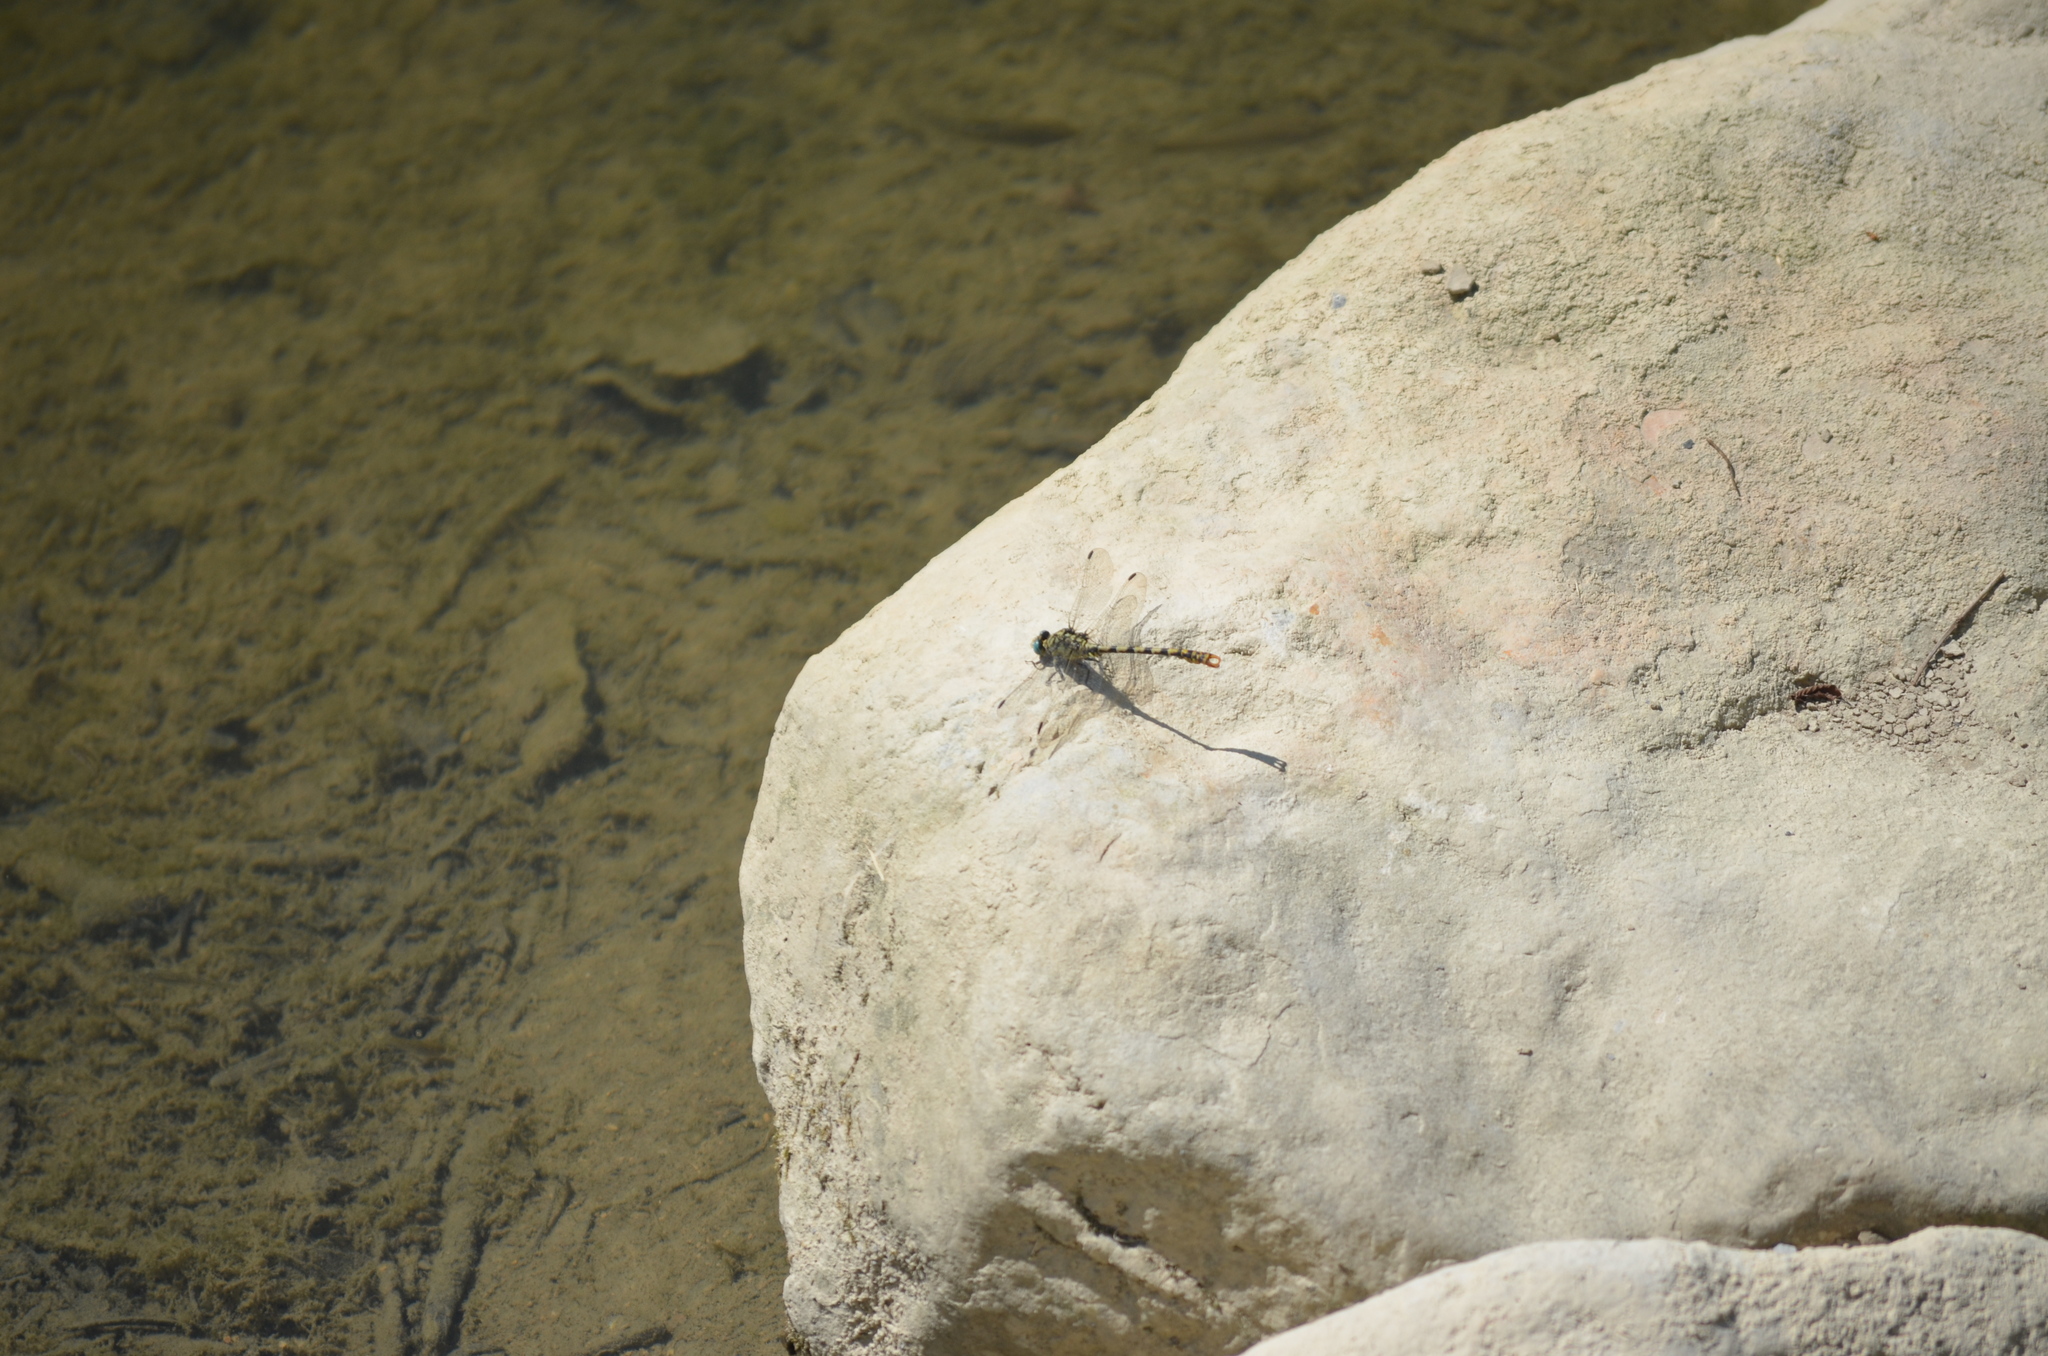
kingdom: Animalia
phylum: Arthropoda
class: Insecta
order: Odonata
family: Gomphidae
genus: Onychogomphus
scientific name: Onychogomphus forcipatus
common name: Small pincertail
